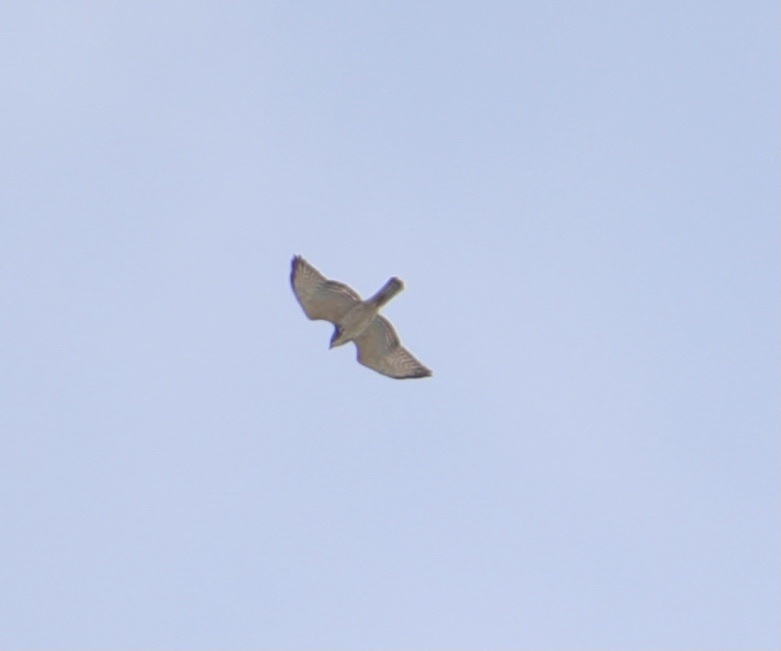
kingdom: Animalia
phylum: Chordata
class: Aves
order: Accipitriformes
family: Accipitridae
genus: Buteo
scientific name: Buteo platypterus
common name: Broad-winged hawk
